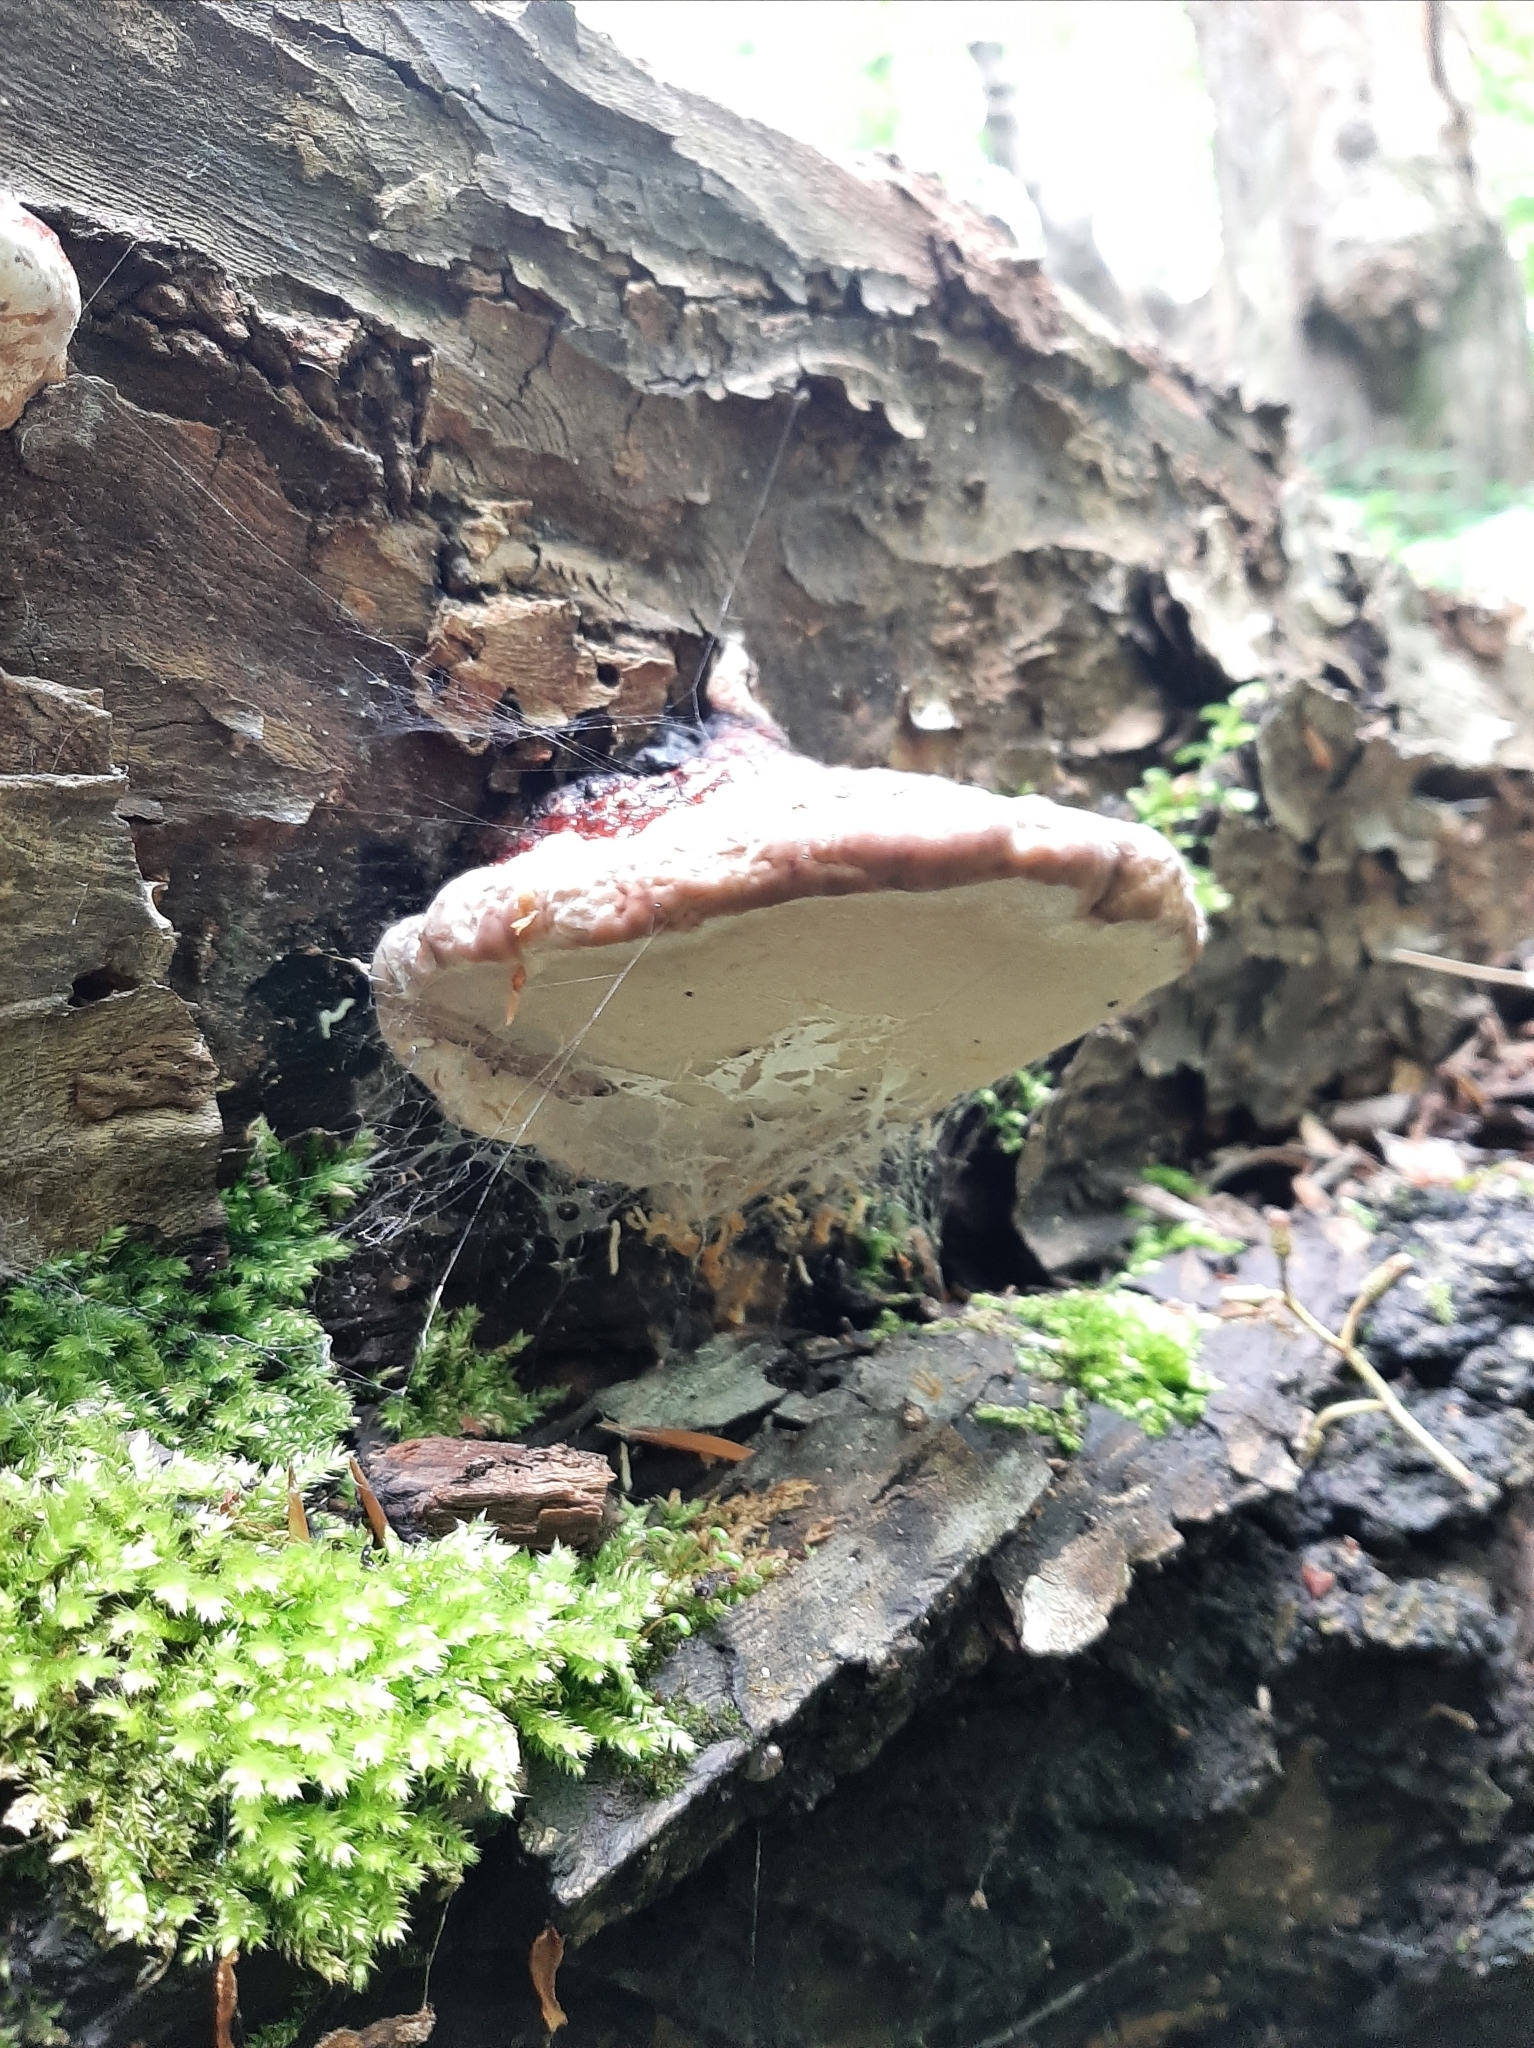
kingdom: Fungi
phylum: Basidiomycota
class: Agaricomycetes
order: Polyporales
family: Fomitopsidaceae
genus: Fomitopsis
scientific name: Fomitopsis pinicola
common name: Red-belted bracket
